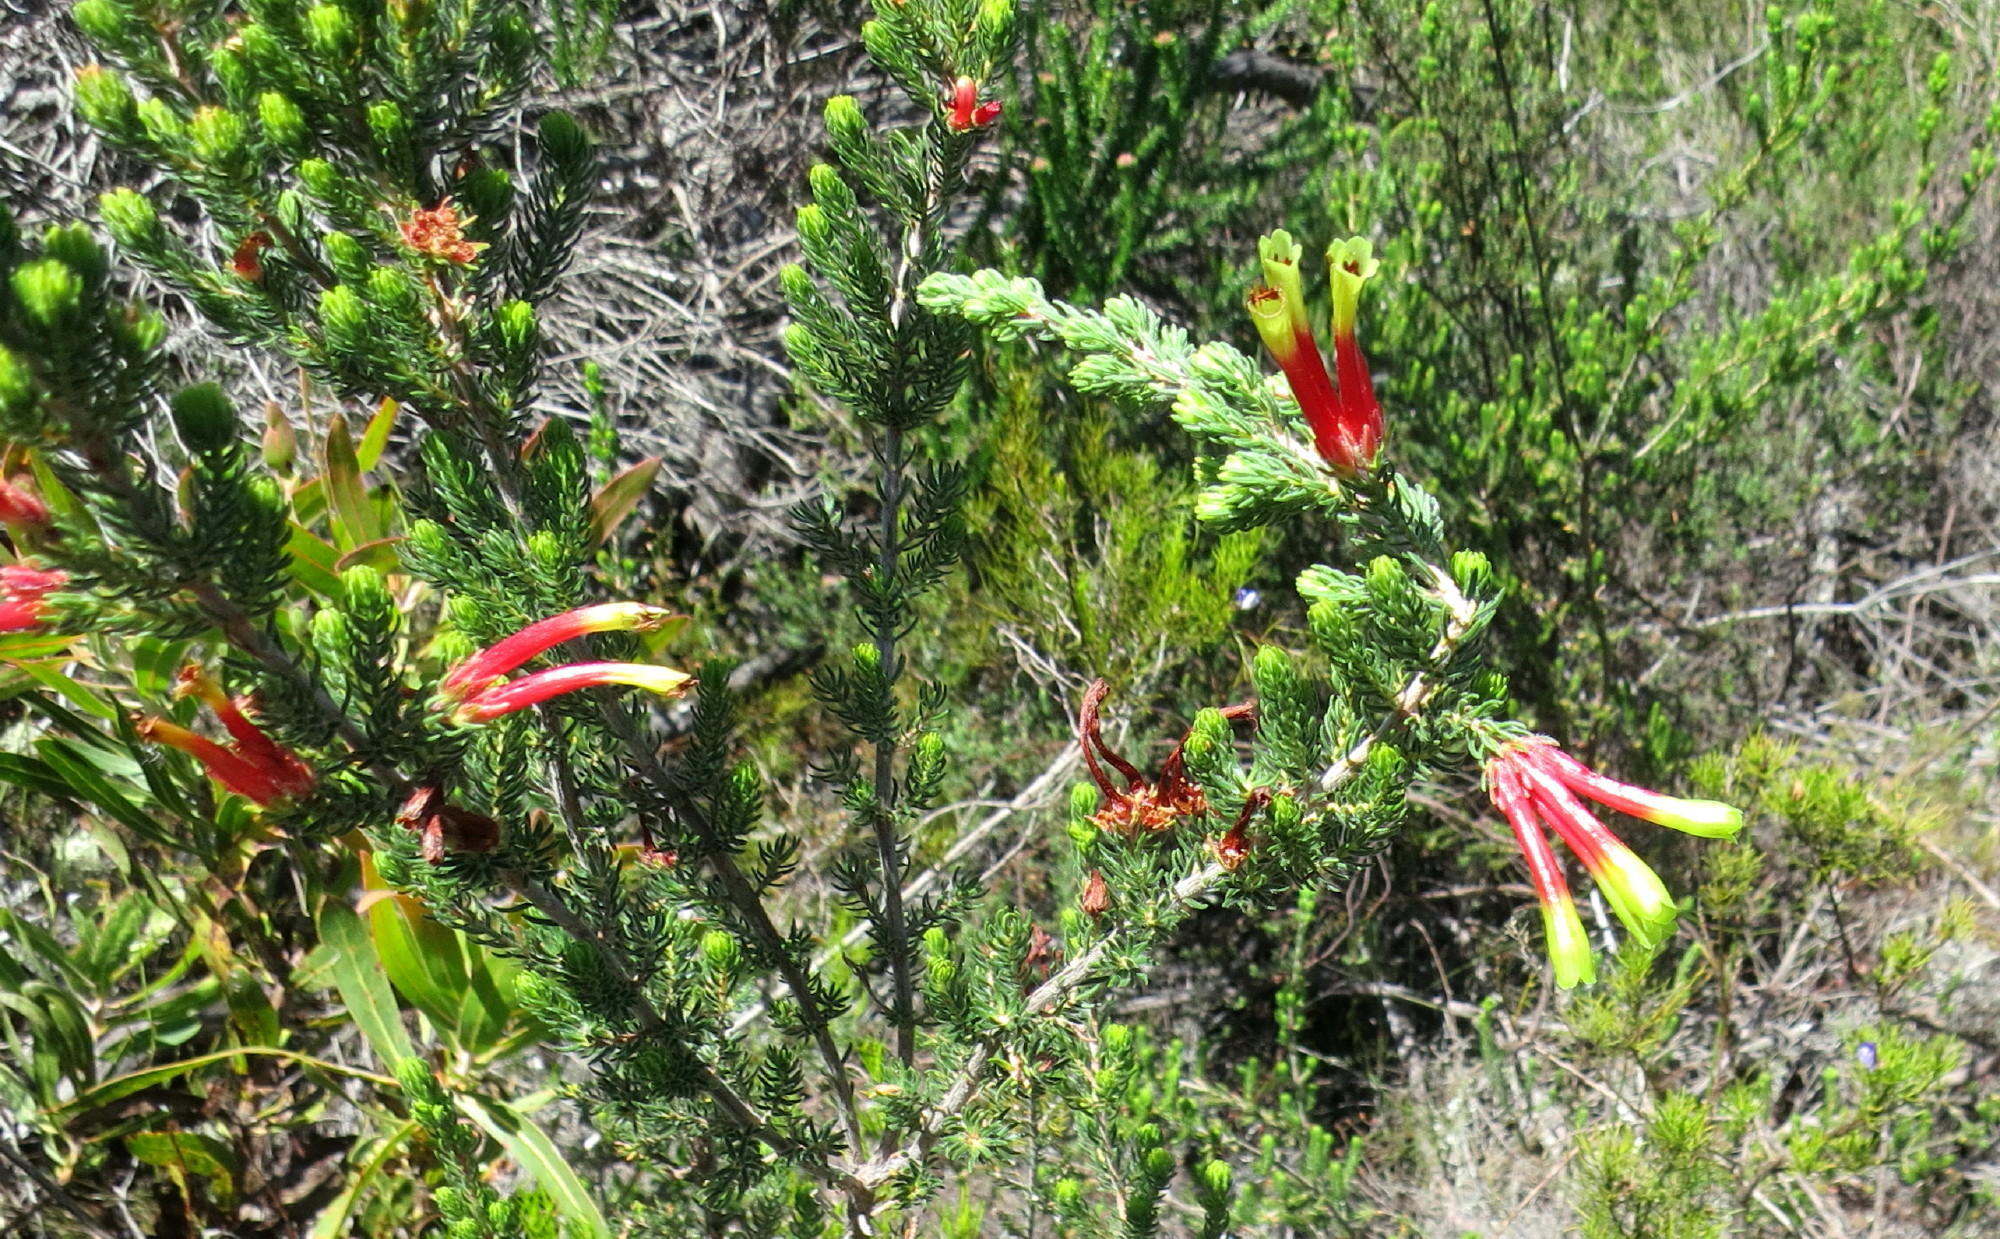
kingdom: Plantae
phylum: Tracheophyta
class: Magnoliopsida
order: Ericales
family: Ericaceae
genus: Erica
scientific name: Erica unicolor
